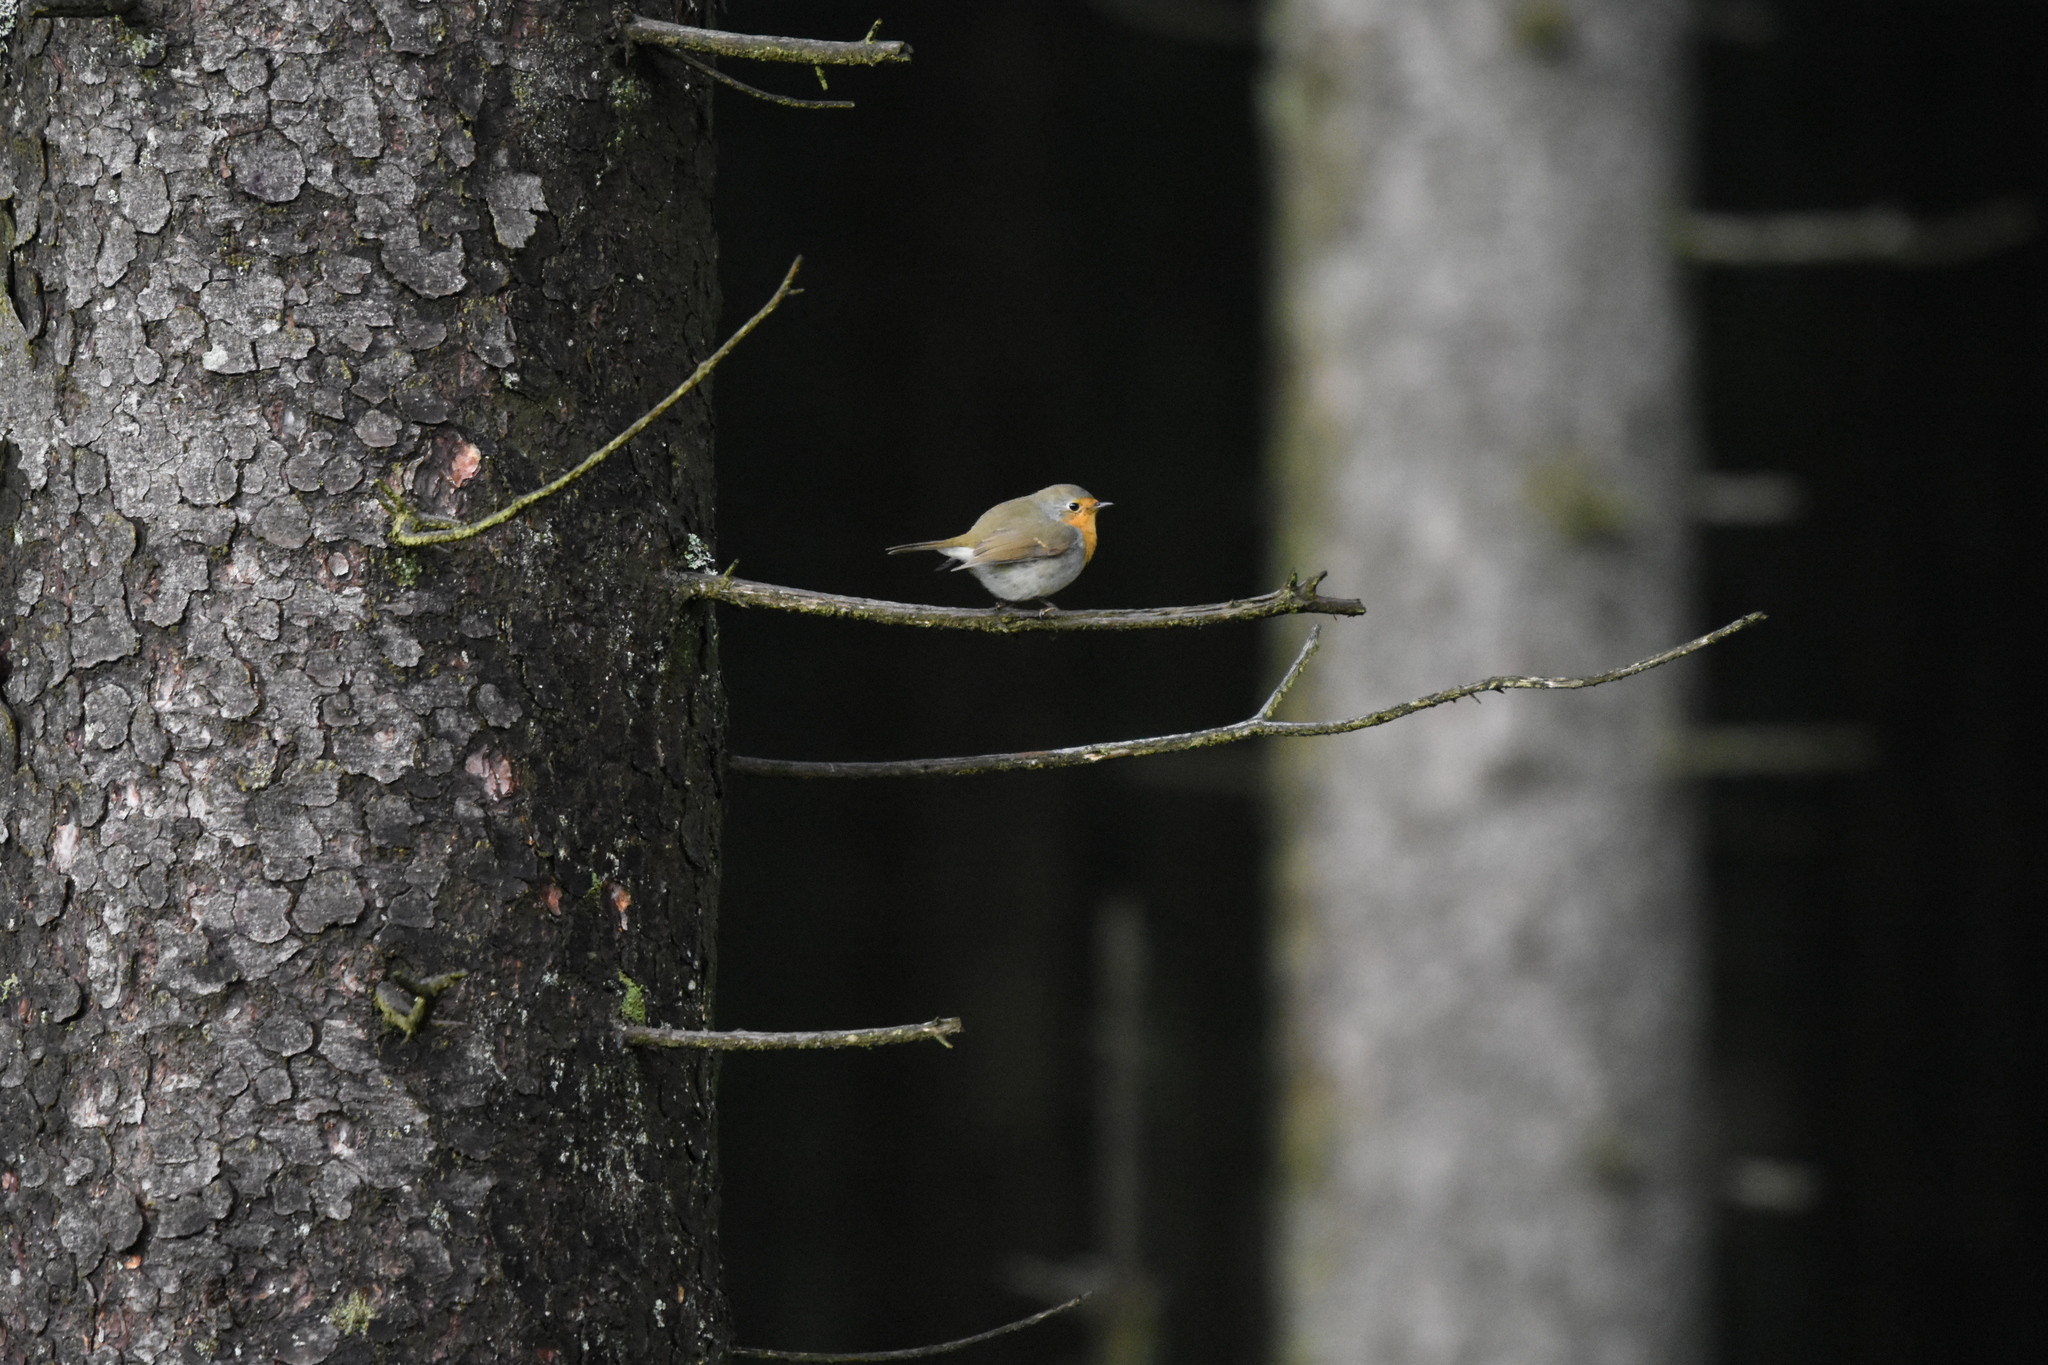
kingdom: Animalia
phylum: Chordata
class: Aves
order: Passeriformes
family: Muscicapidae
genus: Erithacus
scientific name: Erithacus rubecula
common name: European robin
